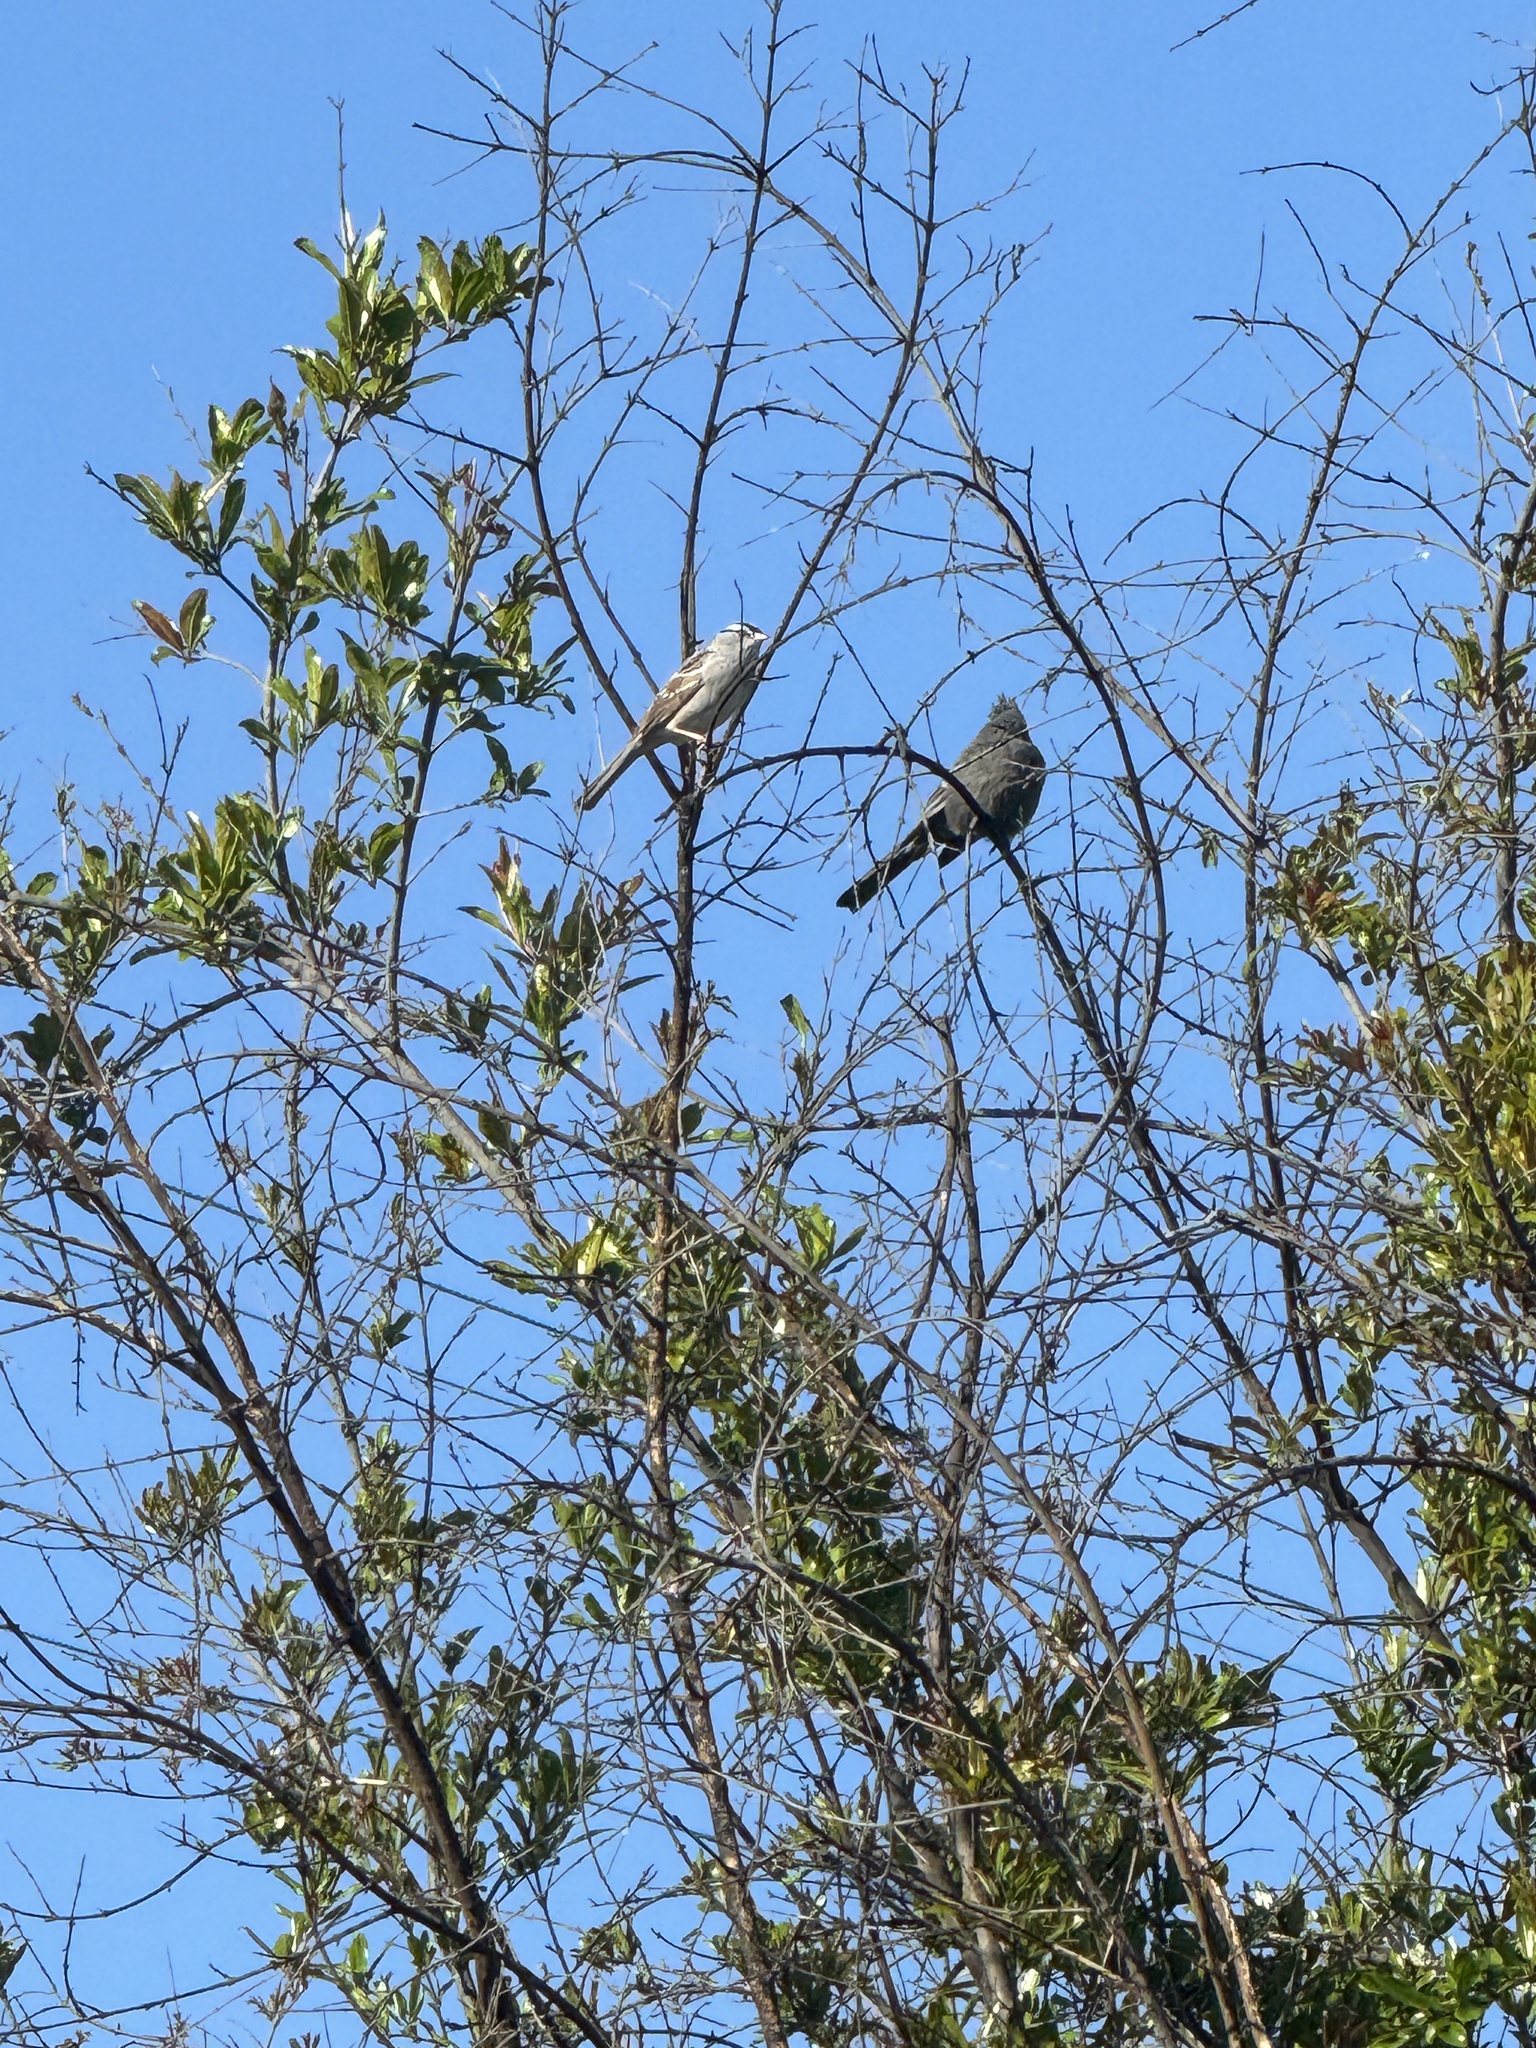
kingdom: Animalia
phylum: Chordata
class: Aves
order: Passeriformes
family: Passerellidae
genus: Zonotrichia
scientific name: Zonotrichia leucophrys
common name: White-crowned sparrow
